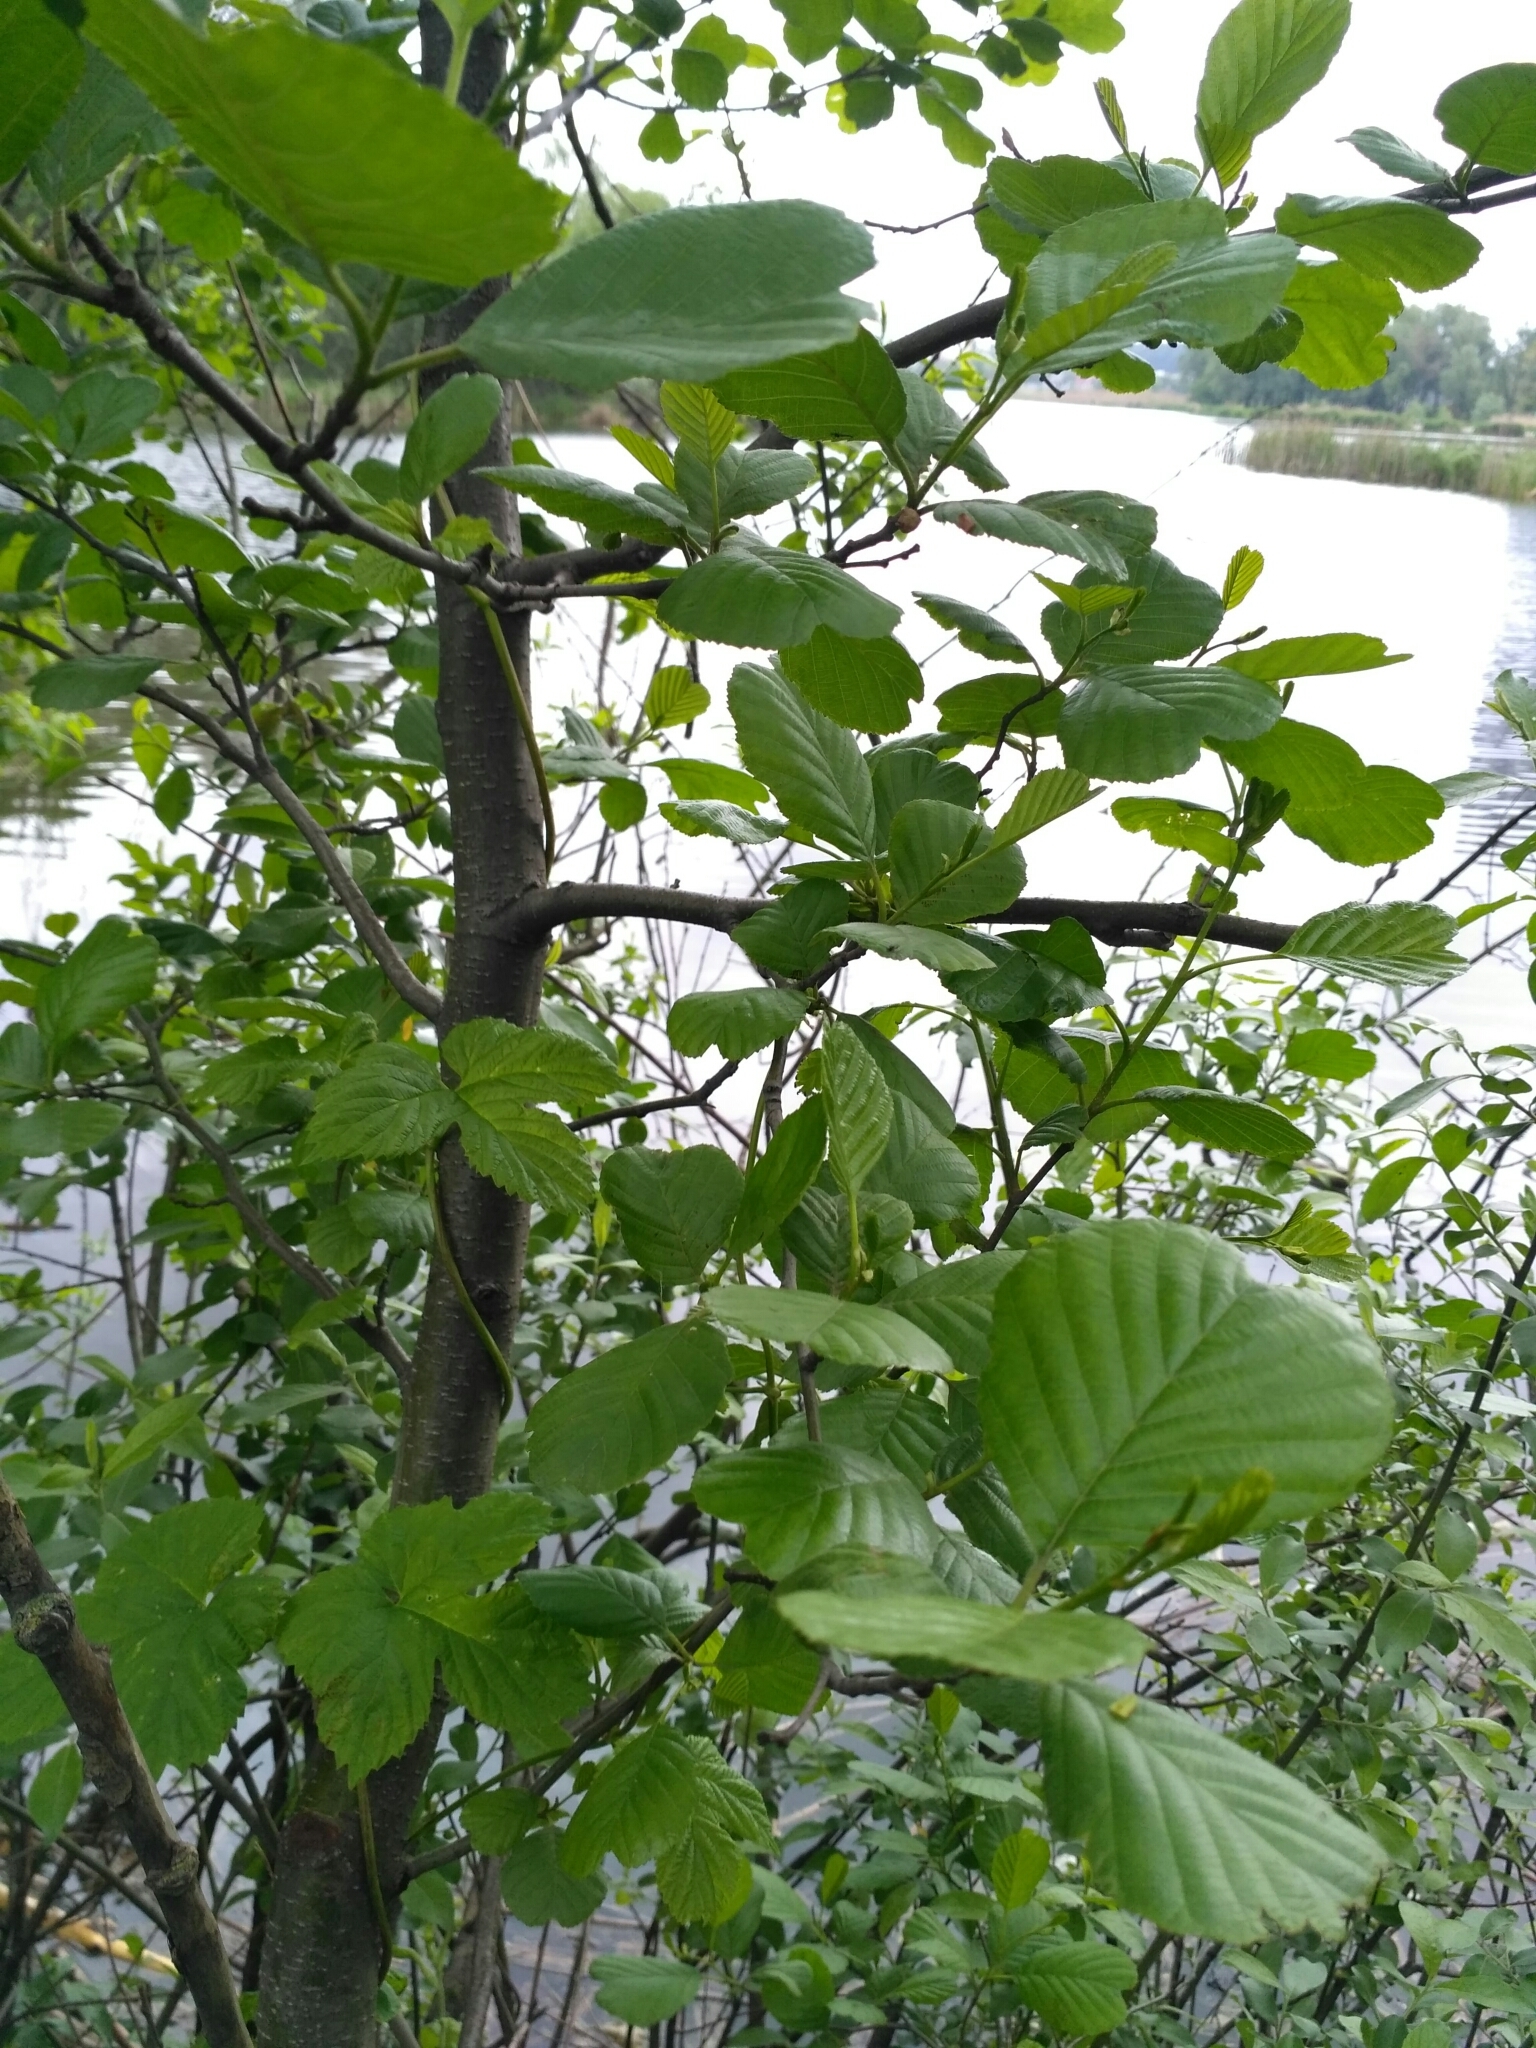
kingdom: Plantae
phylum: Tracheophyta
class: Magnoliopsida
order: Fagales
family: Betulaceae
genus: Alnus
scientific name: Alnus glutinosa
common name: Black alder
